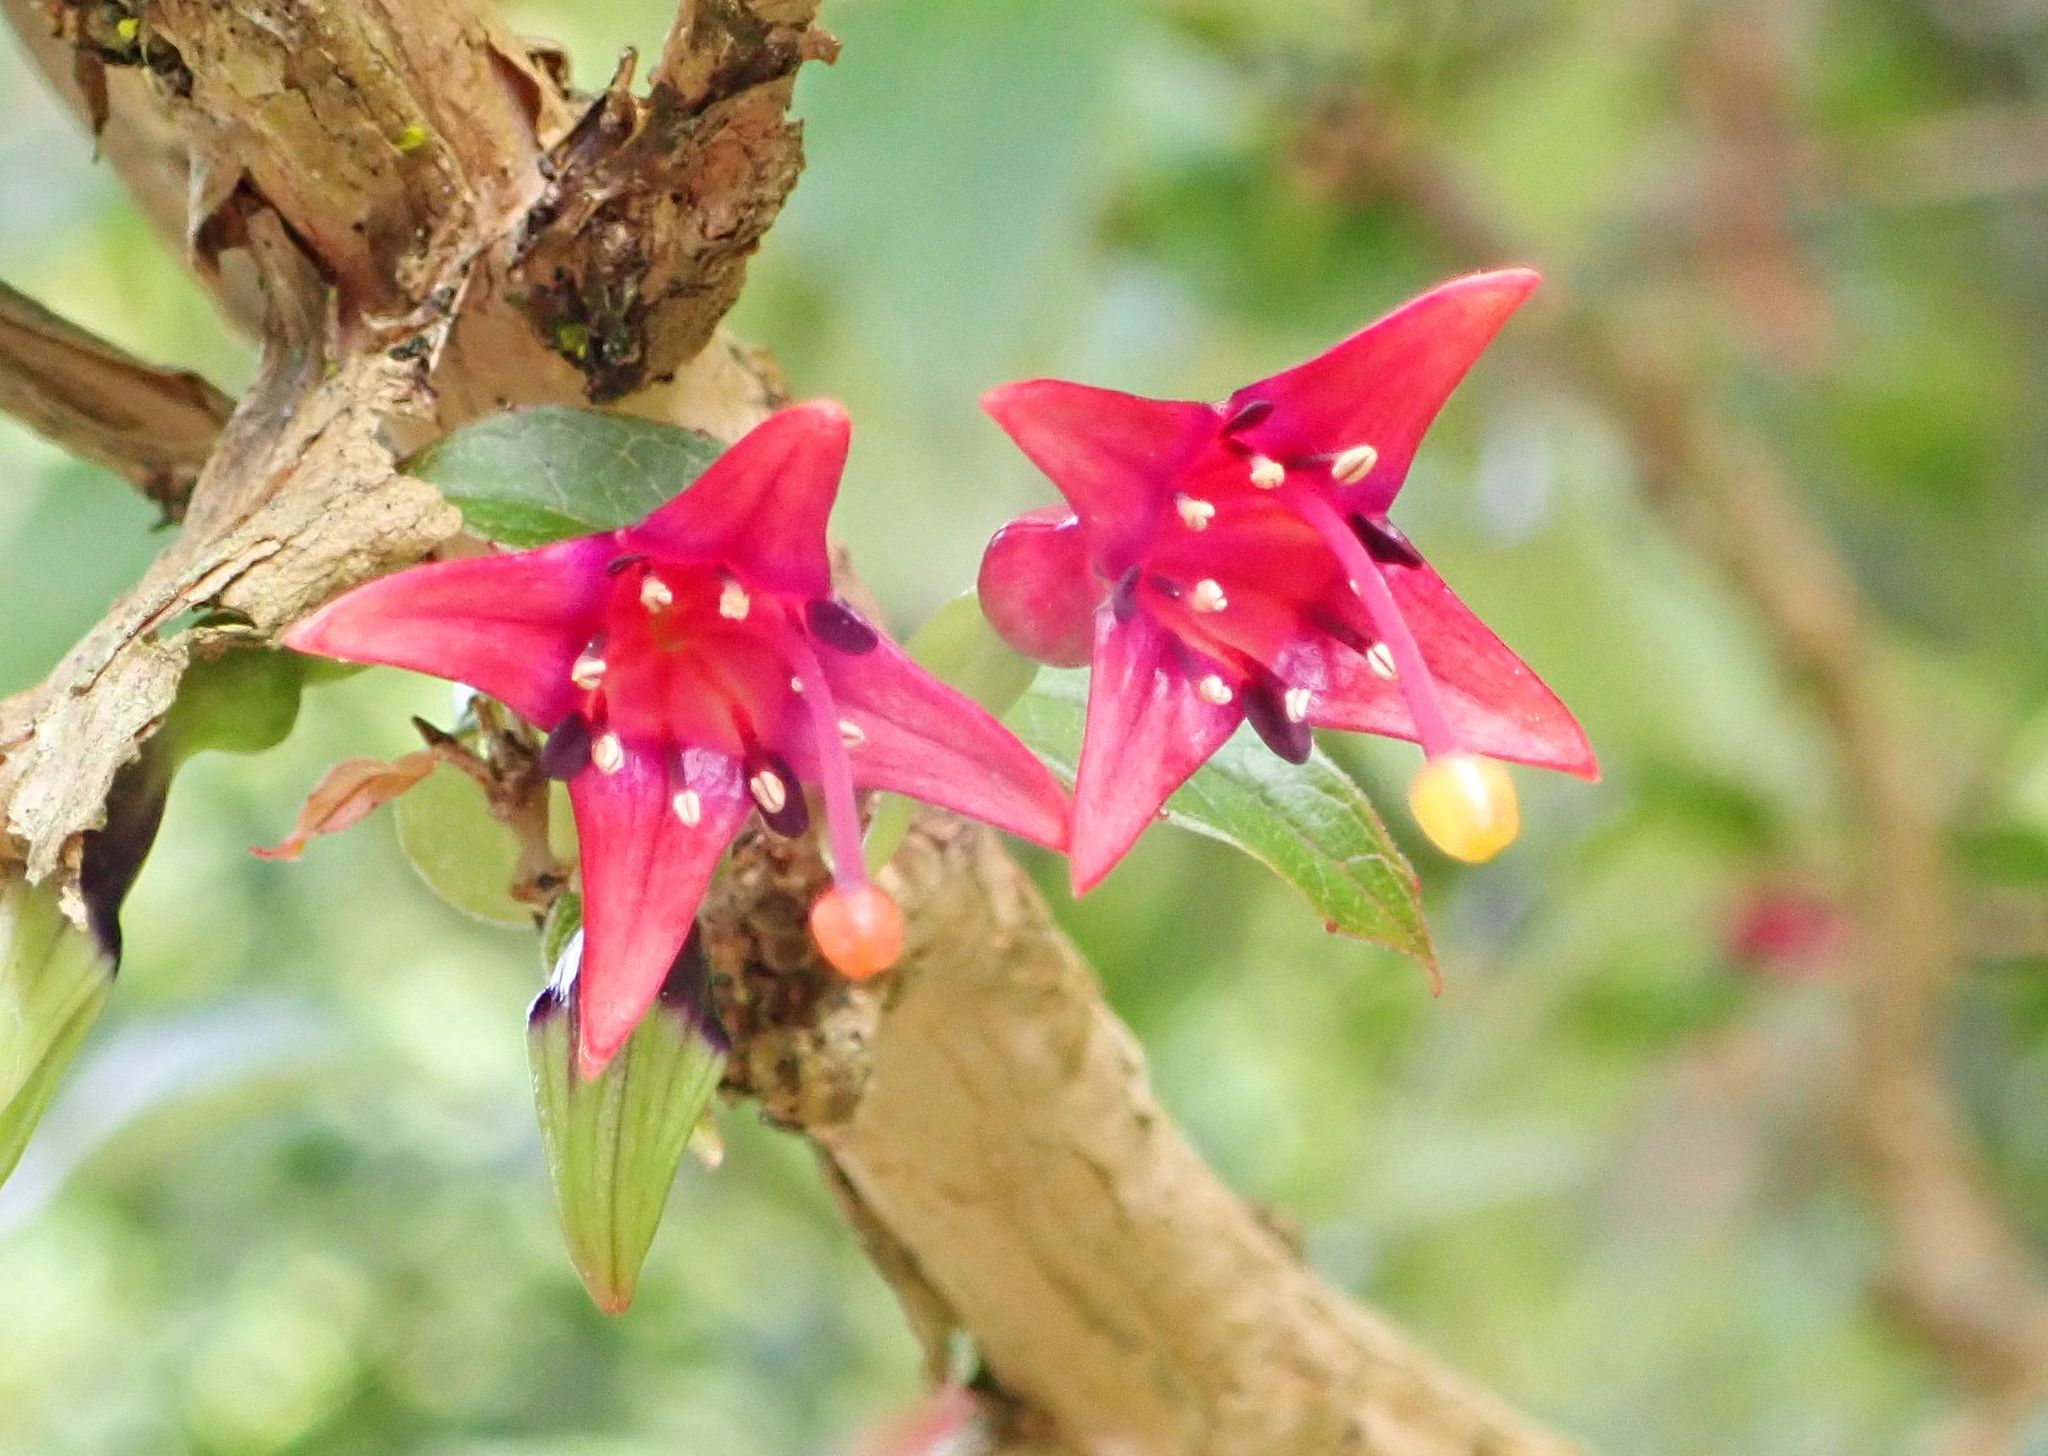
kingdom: Plantae
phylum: Tracheophyta
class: Magnoliopsida
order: Myrtales
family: Onagraceae
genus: Fuchsia
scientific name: Fuchsia excorticata
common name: Tree fuchsia
